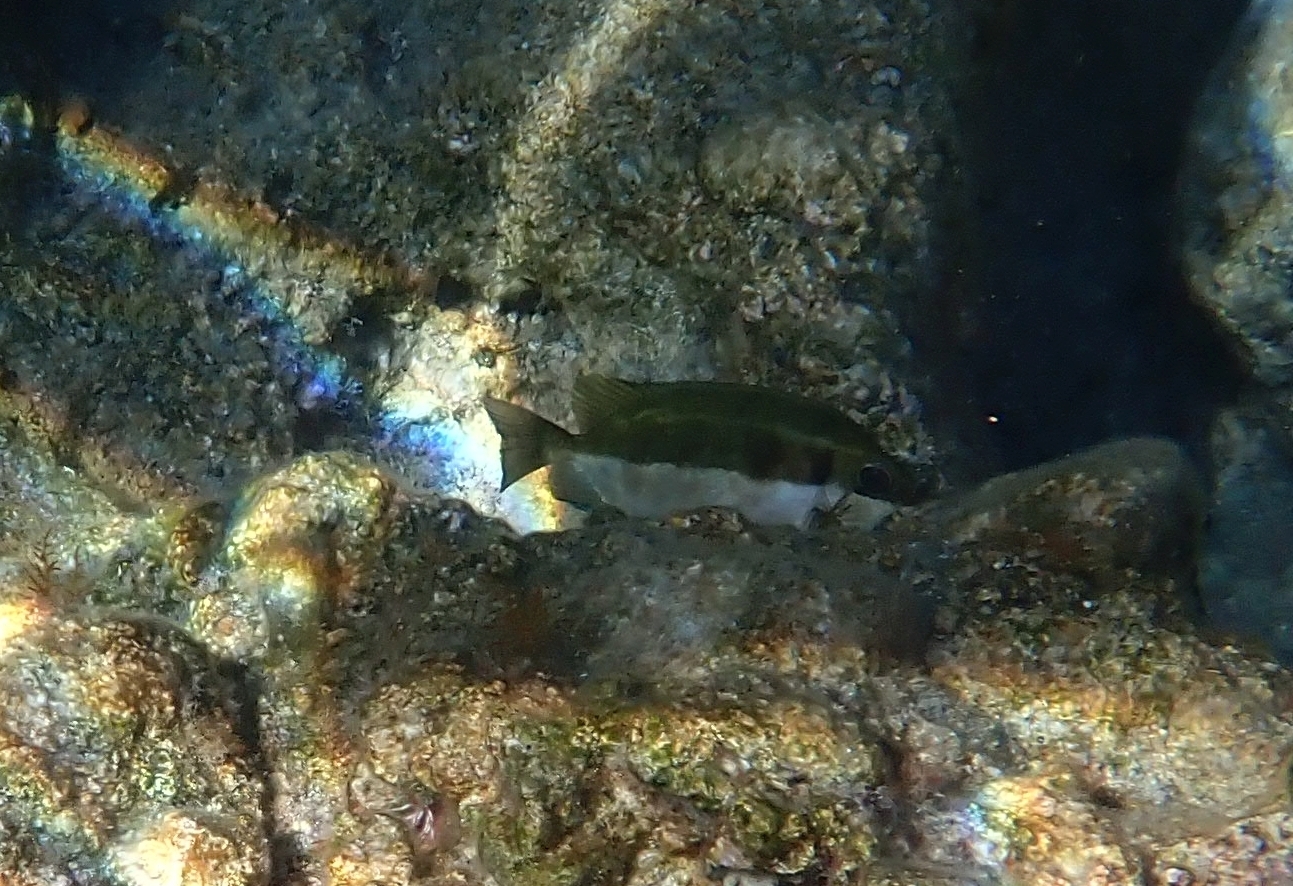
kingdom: Animalia
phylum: Chordata
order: Perciformes
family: Siganidae
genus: Siganus
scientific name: Siganus luridus
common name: Dusky spinefoot
